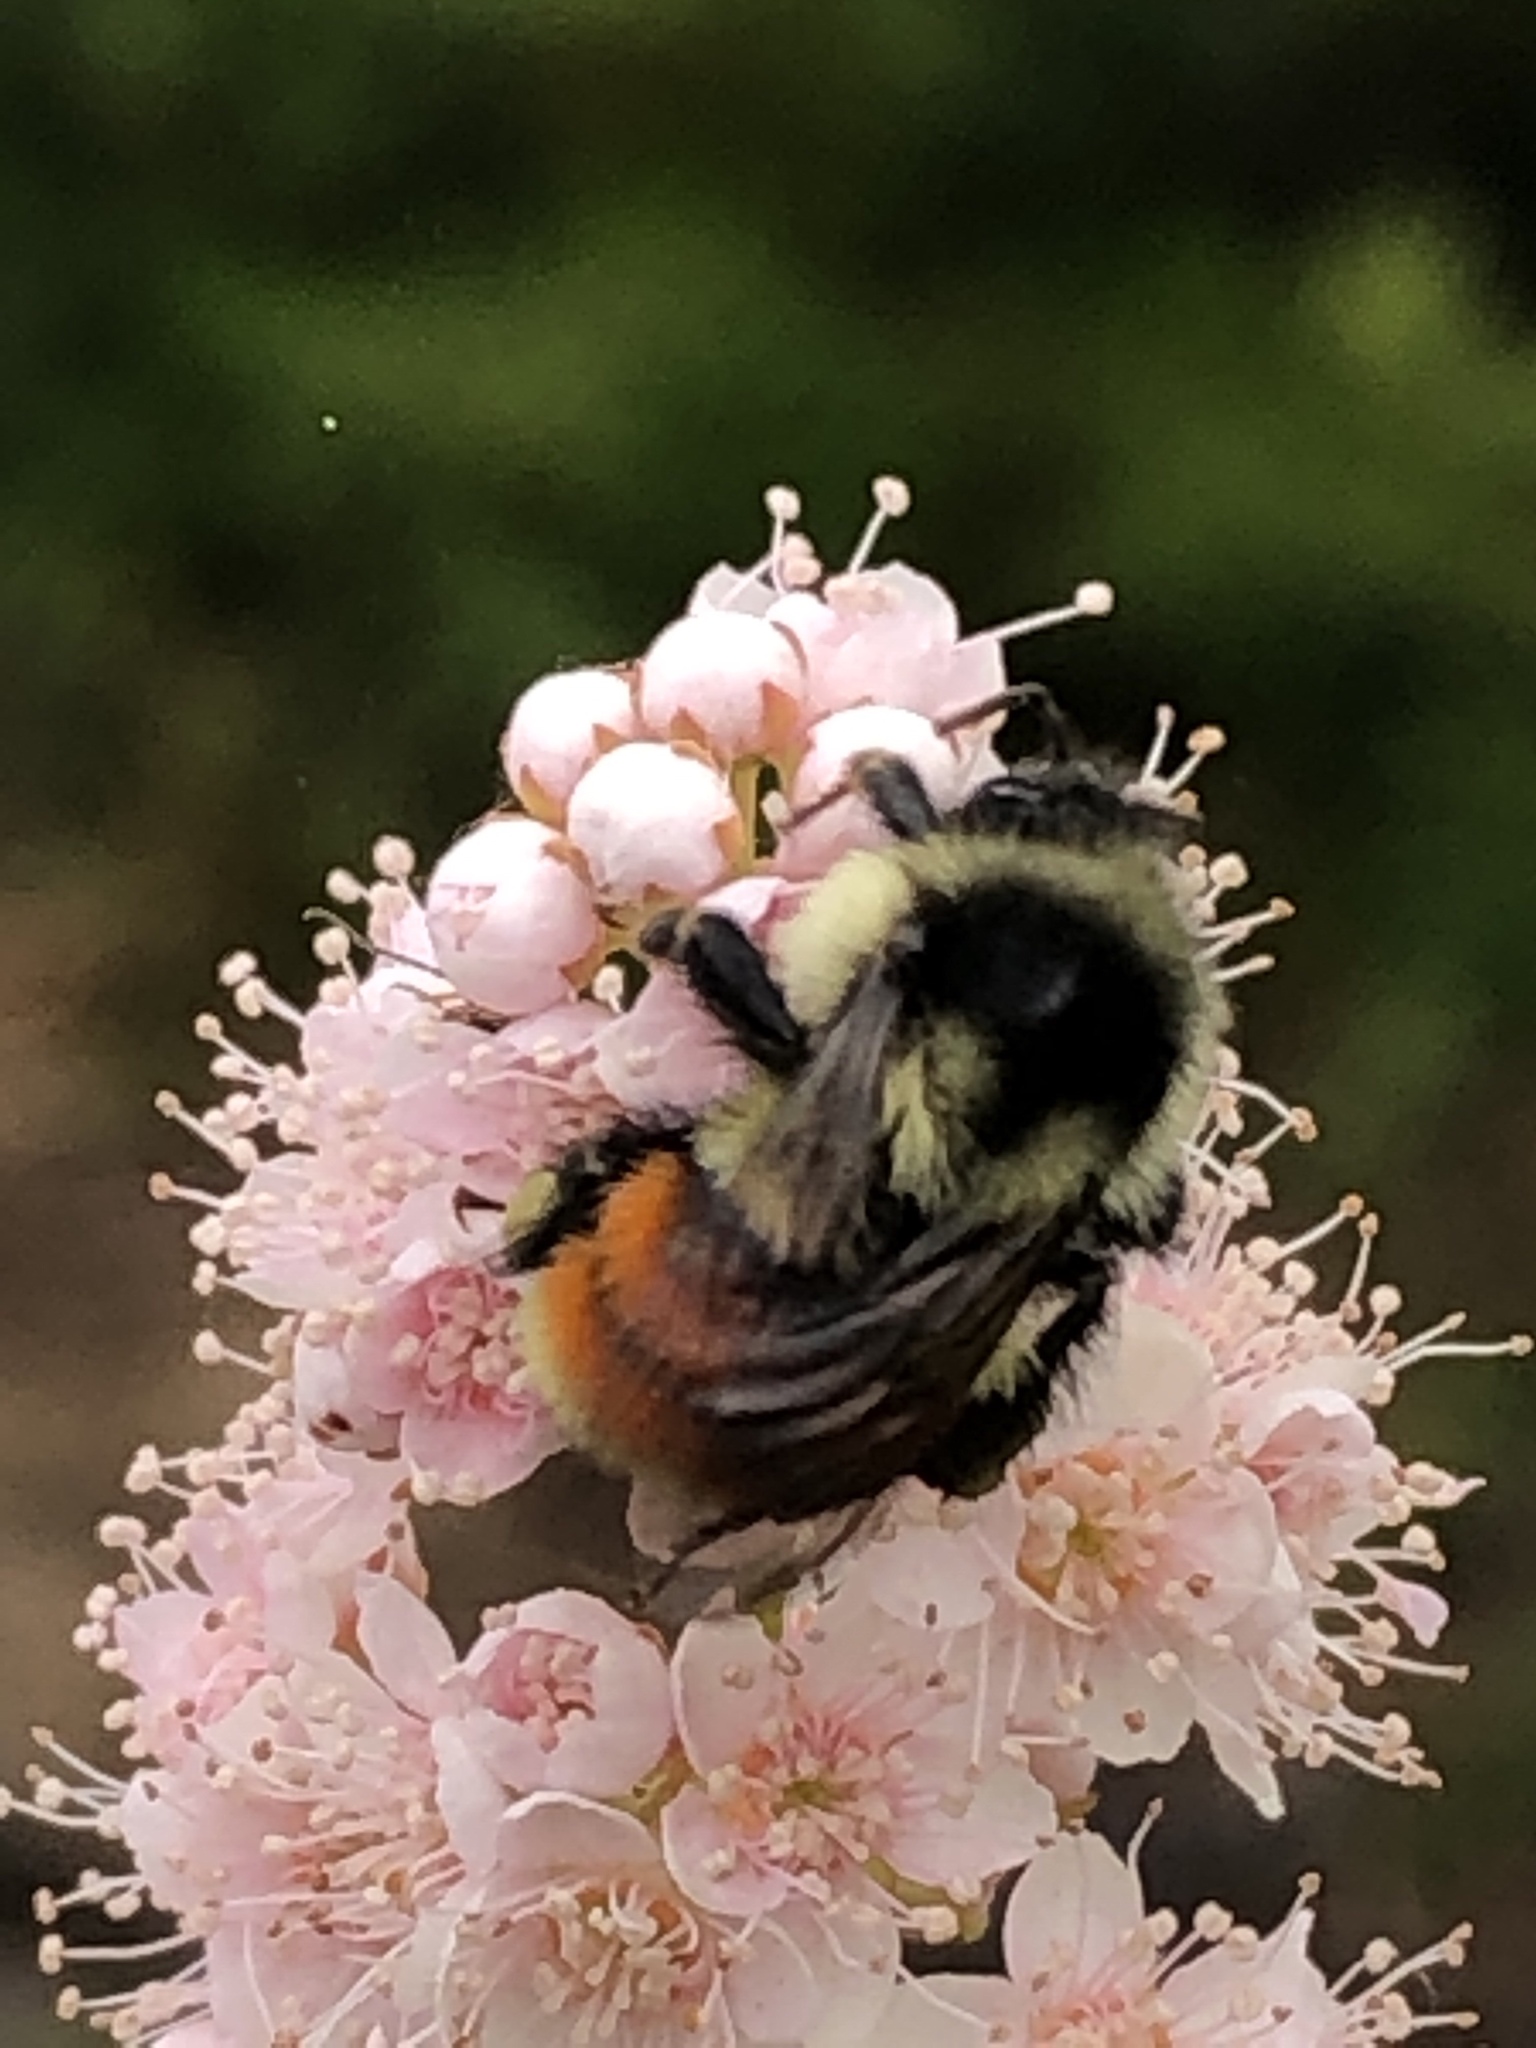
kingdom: Animalia
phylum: Arthropoda
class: Insecta
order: Hymenoptera
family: Apidae
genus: Bombus
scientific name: Bombus ternarius
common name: Tri-colored bumble bee
